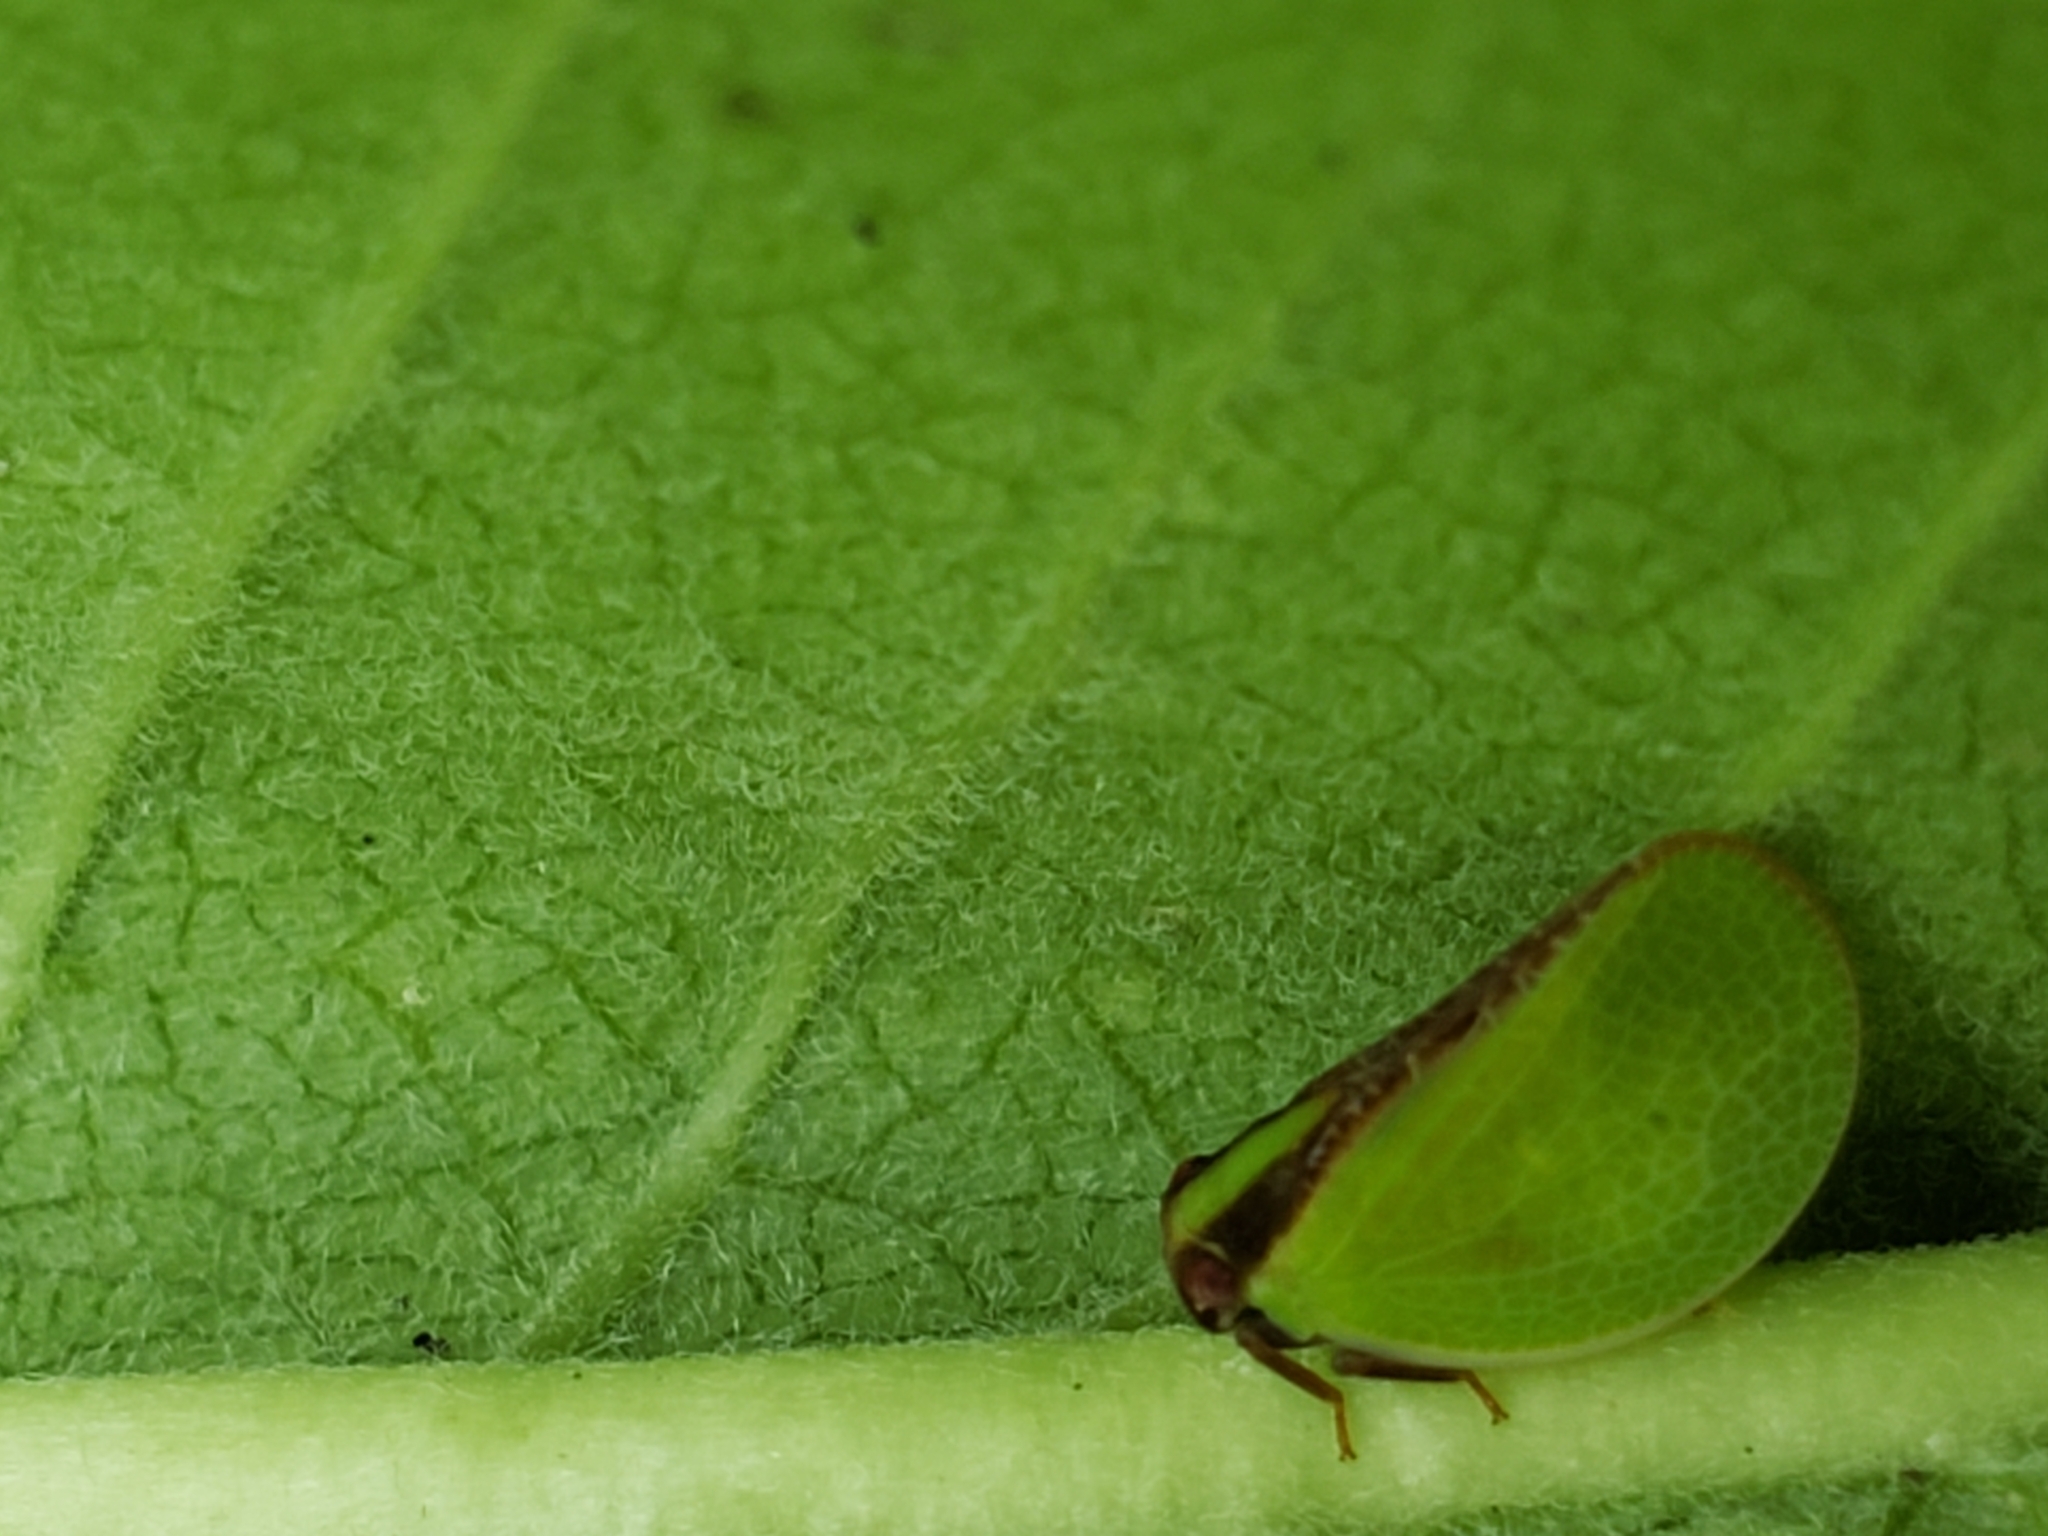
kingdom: Animalia
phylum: Arthropoda
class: Insecta
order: Hemiptera
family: Acanaloniidae
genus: Acanalonia
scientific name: Acanalonia bivittata
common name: Two-striped planthopper
